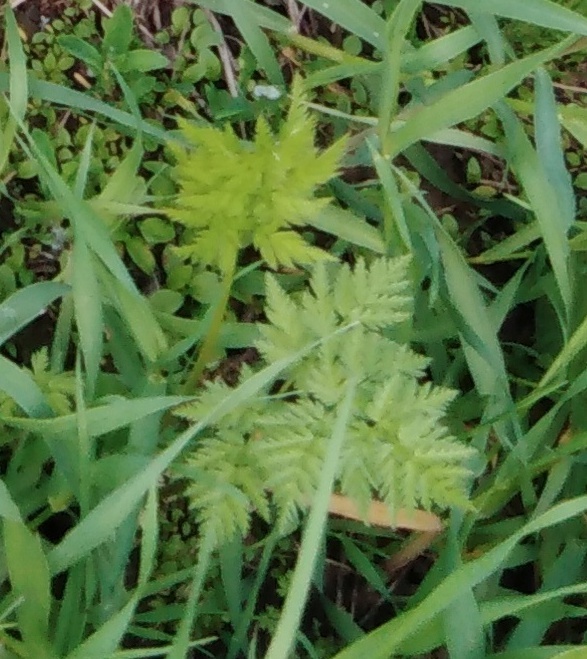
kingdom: Plantae
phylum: Tracheophyta
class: Magnoliopsida
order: Apiales
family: Apiaceae
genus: Anthriscus
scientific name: Anthriscus sylvestris
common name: Cow parsley
